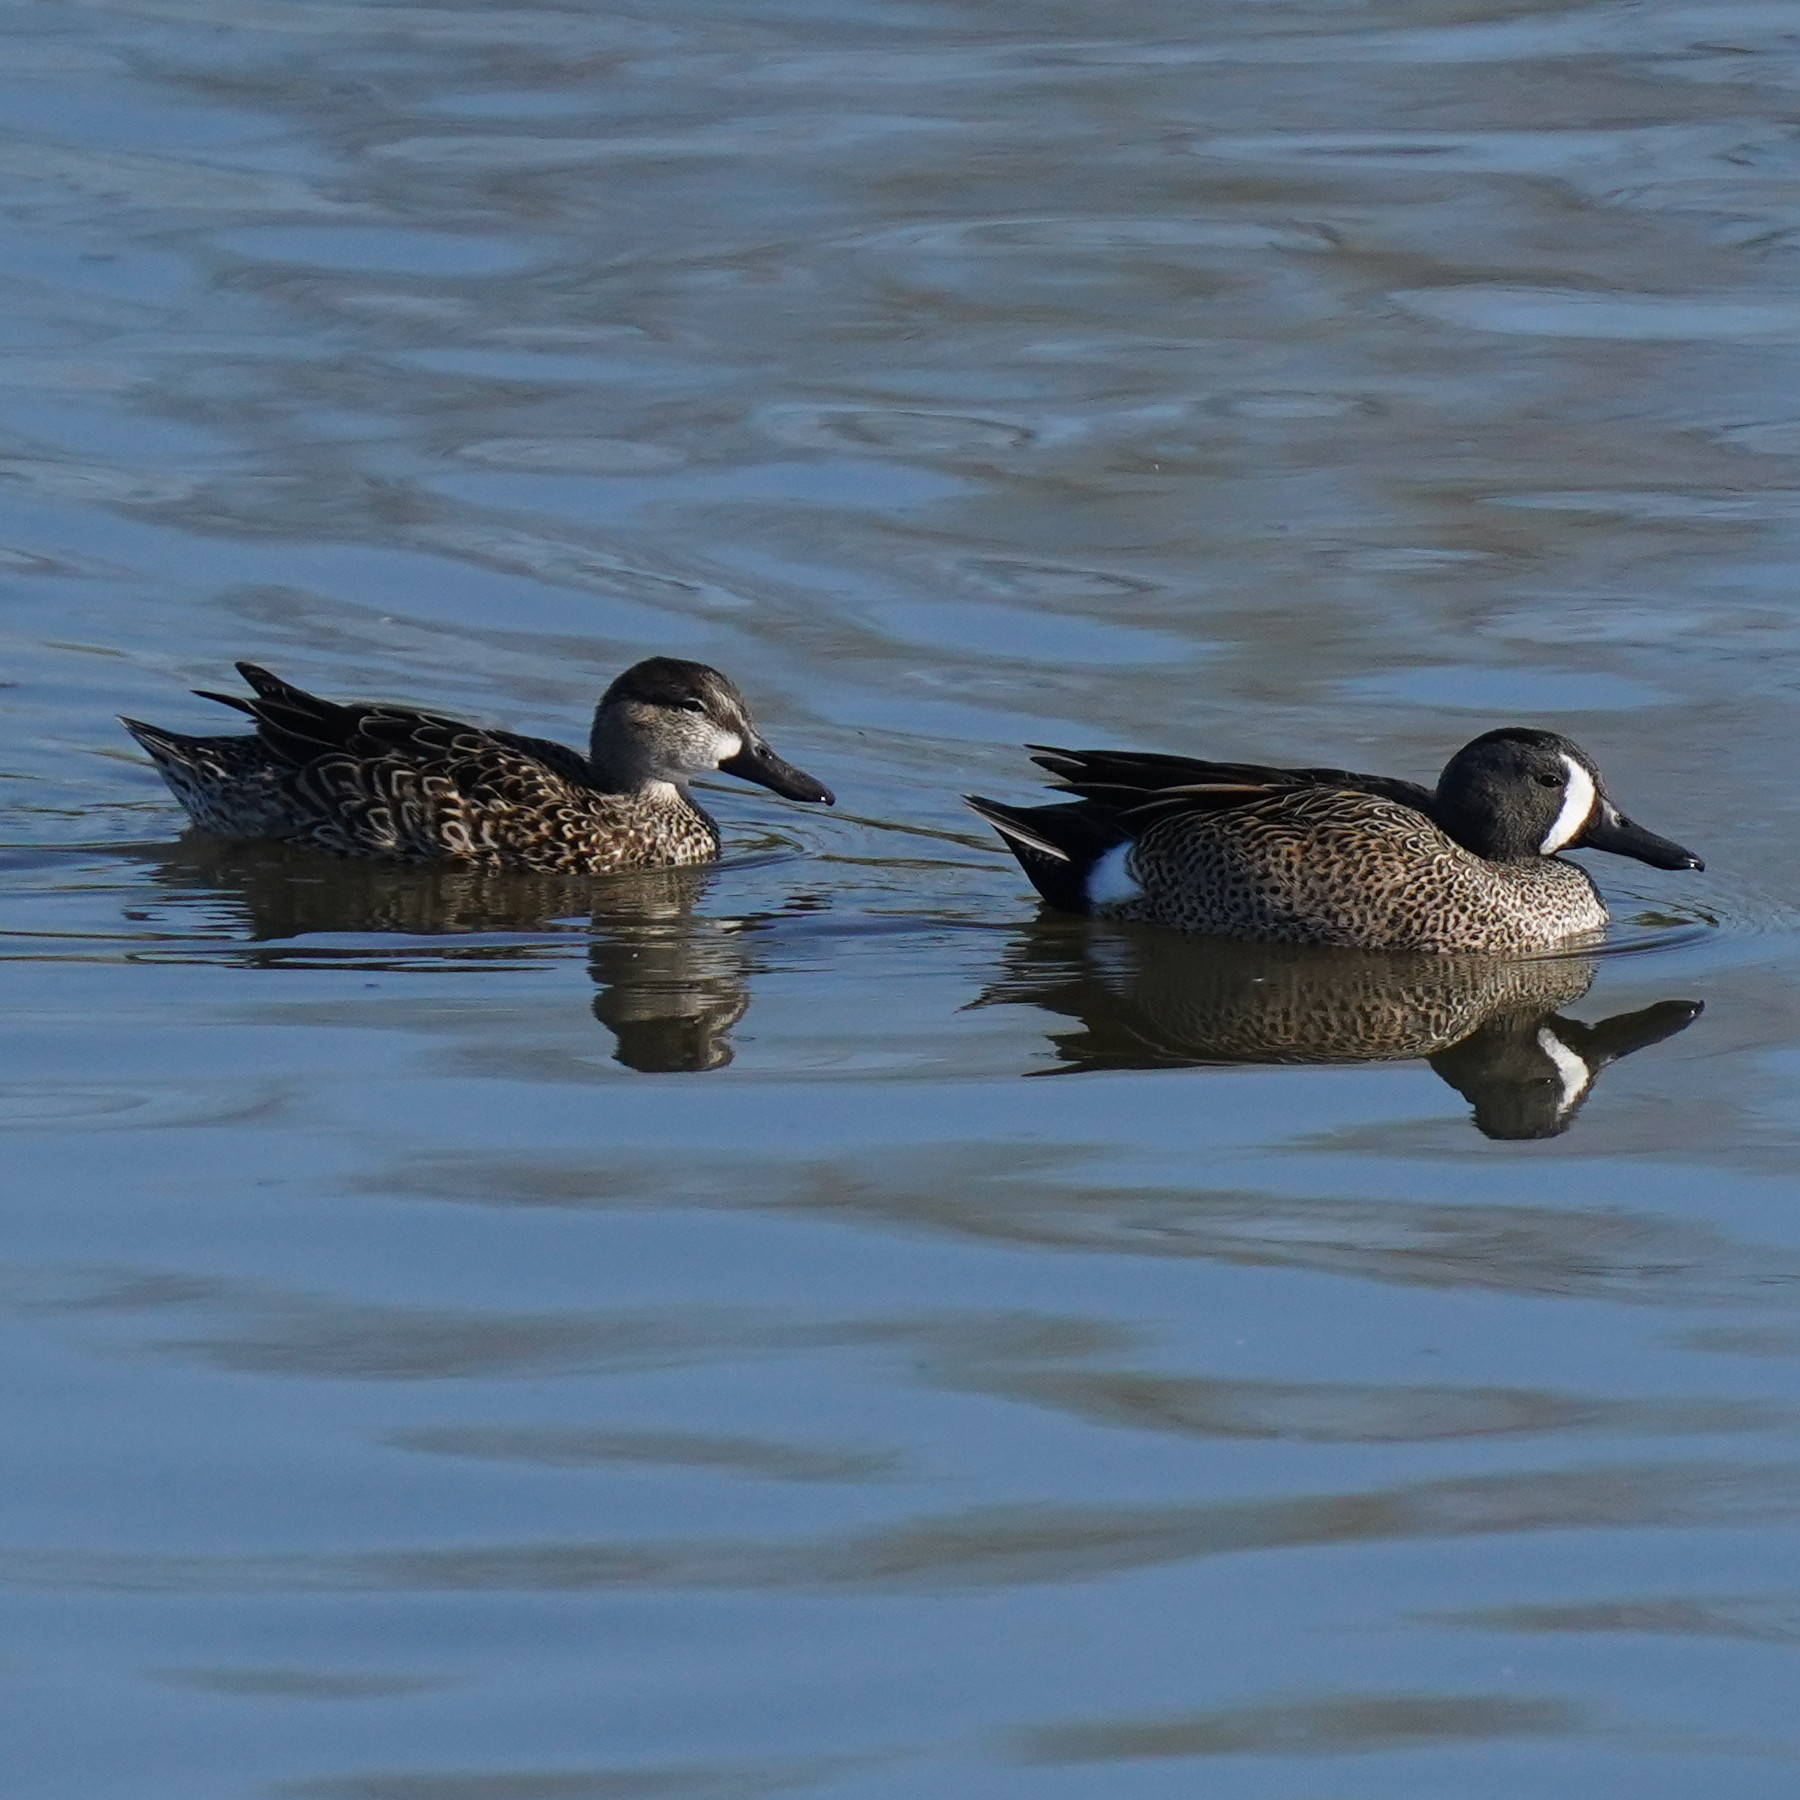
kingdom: Animalia
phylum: Chordata
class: Aves
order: Anseriformes
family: Anatidae
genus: Spatula
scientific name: Spatula discors
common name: Blue-winged teal
